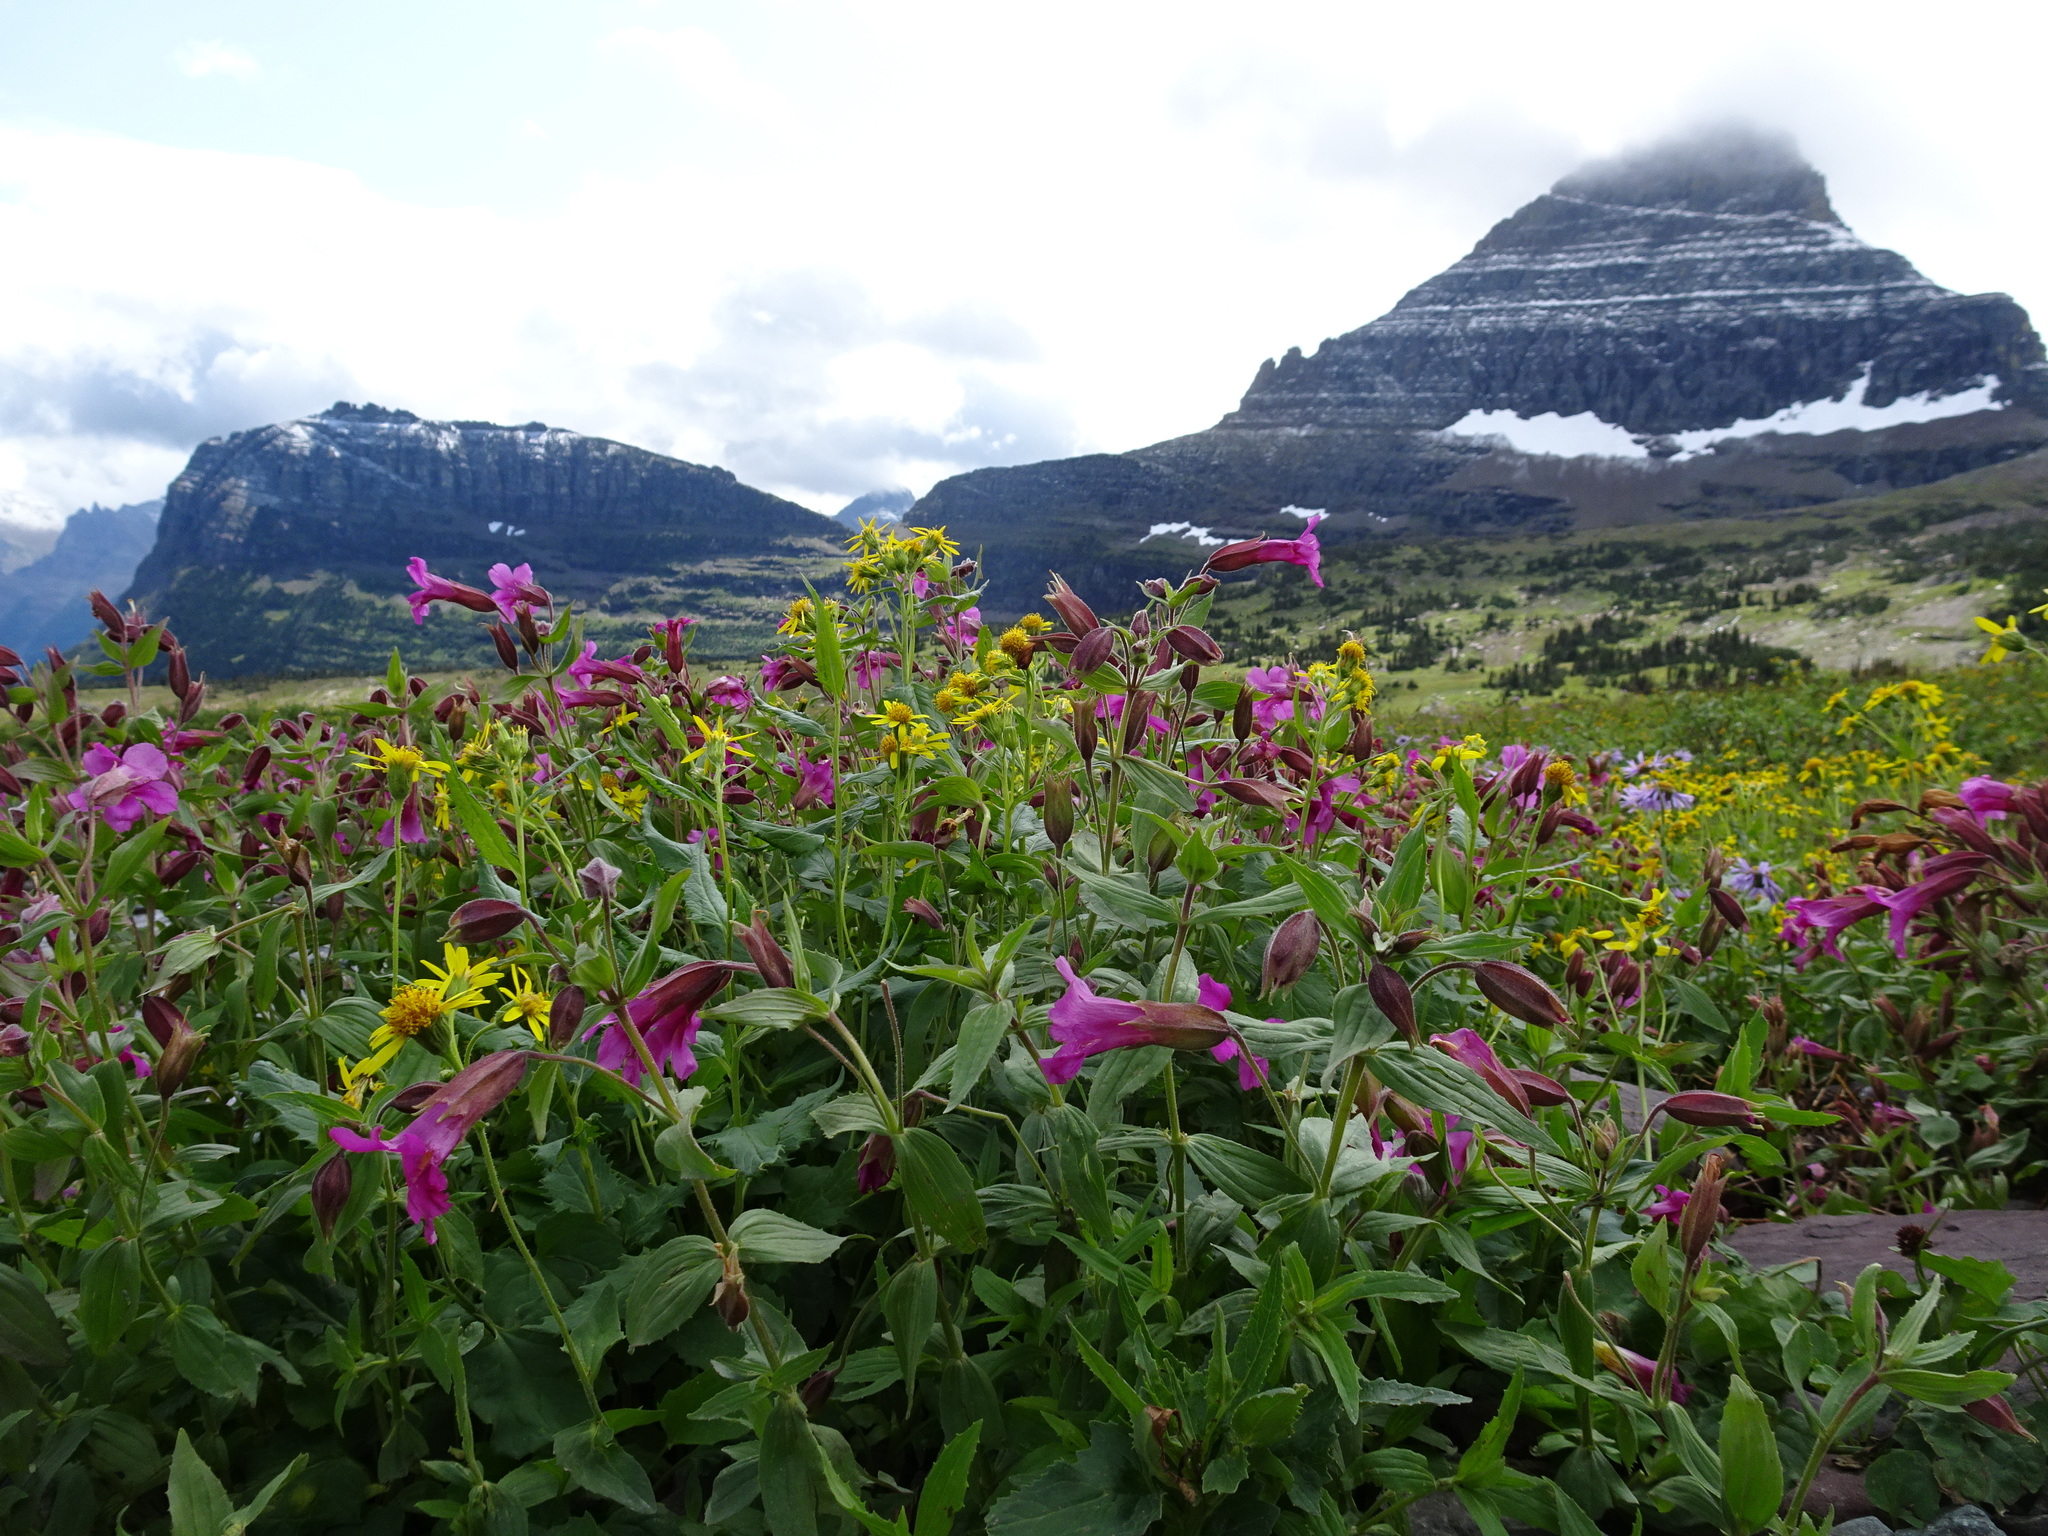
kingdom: Plantae
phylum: Tracheophyta
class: Magnoliopsida
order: Lamiales
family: Phrymaceae
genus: Erythranthe
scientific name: Erythranthe lewisii
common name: Lewis's monkey-flower
